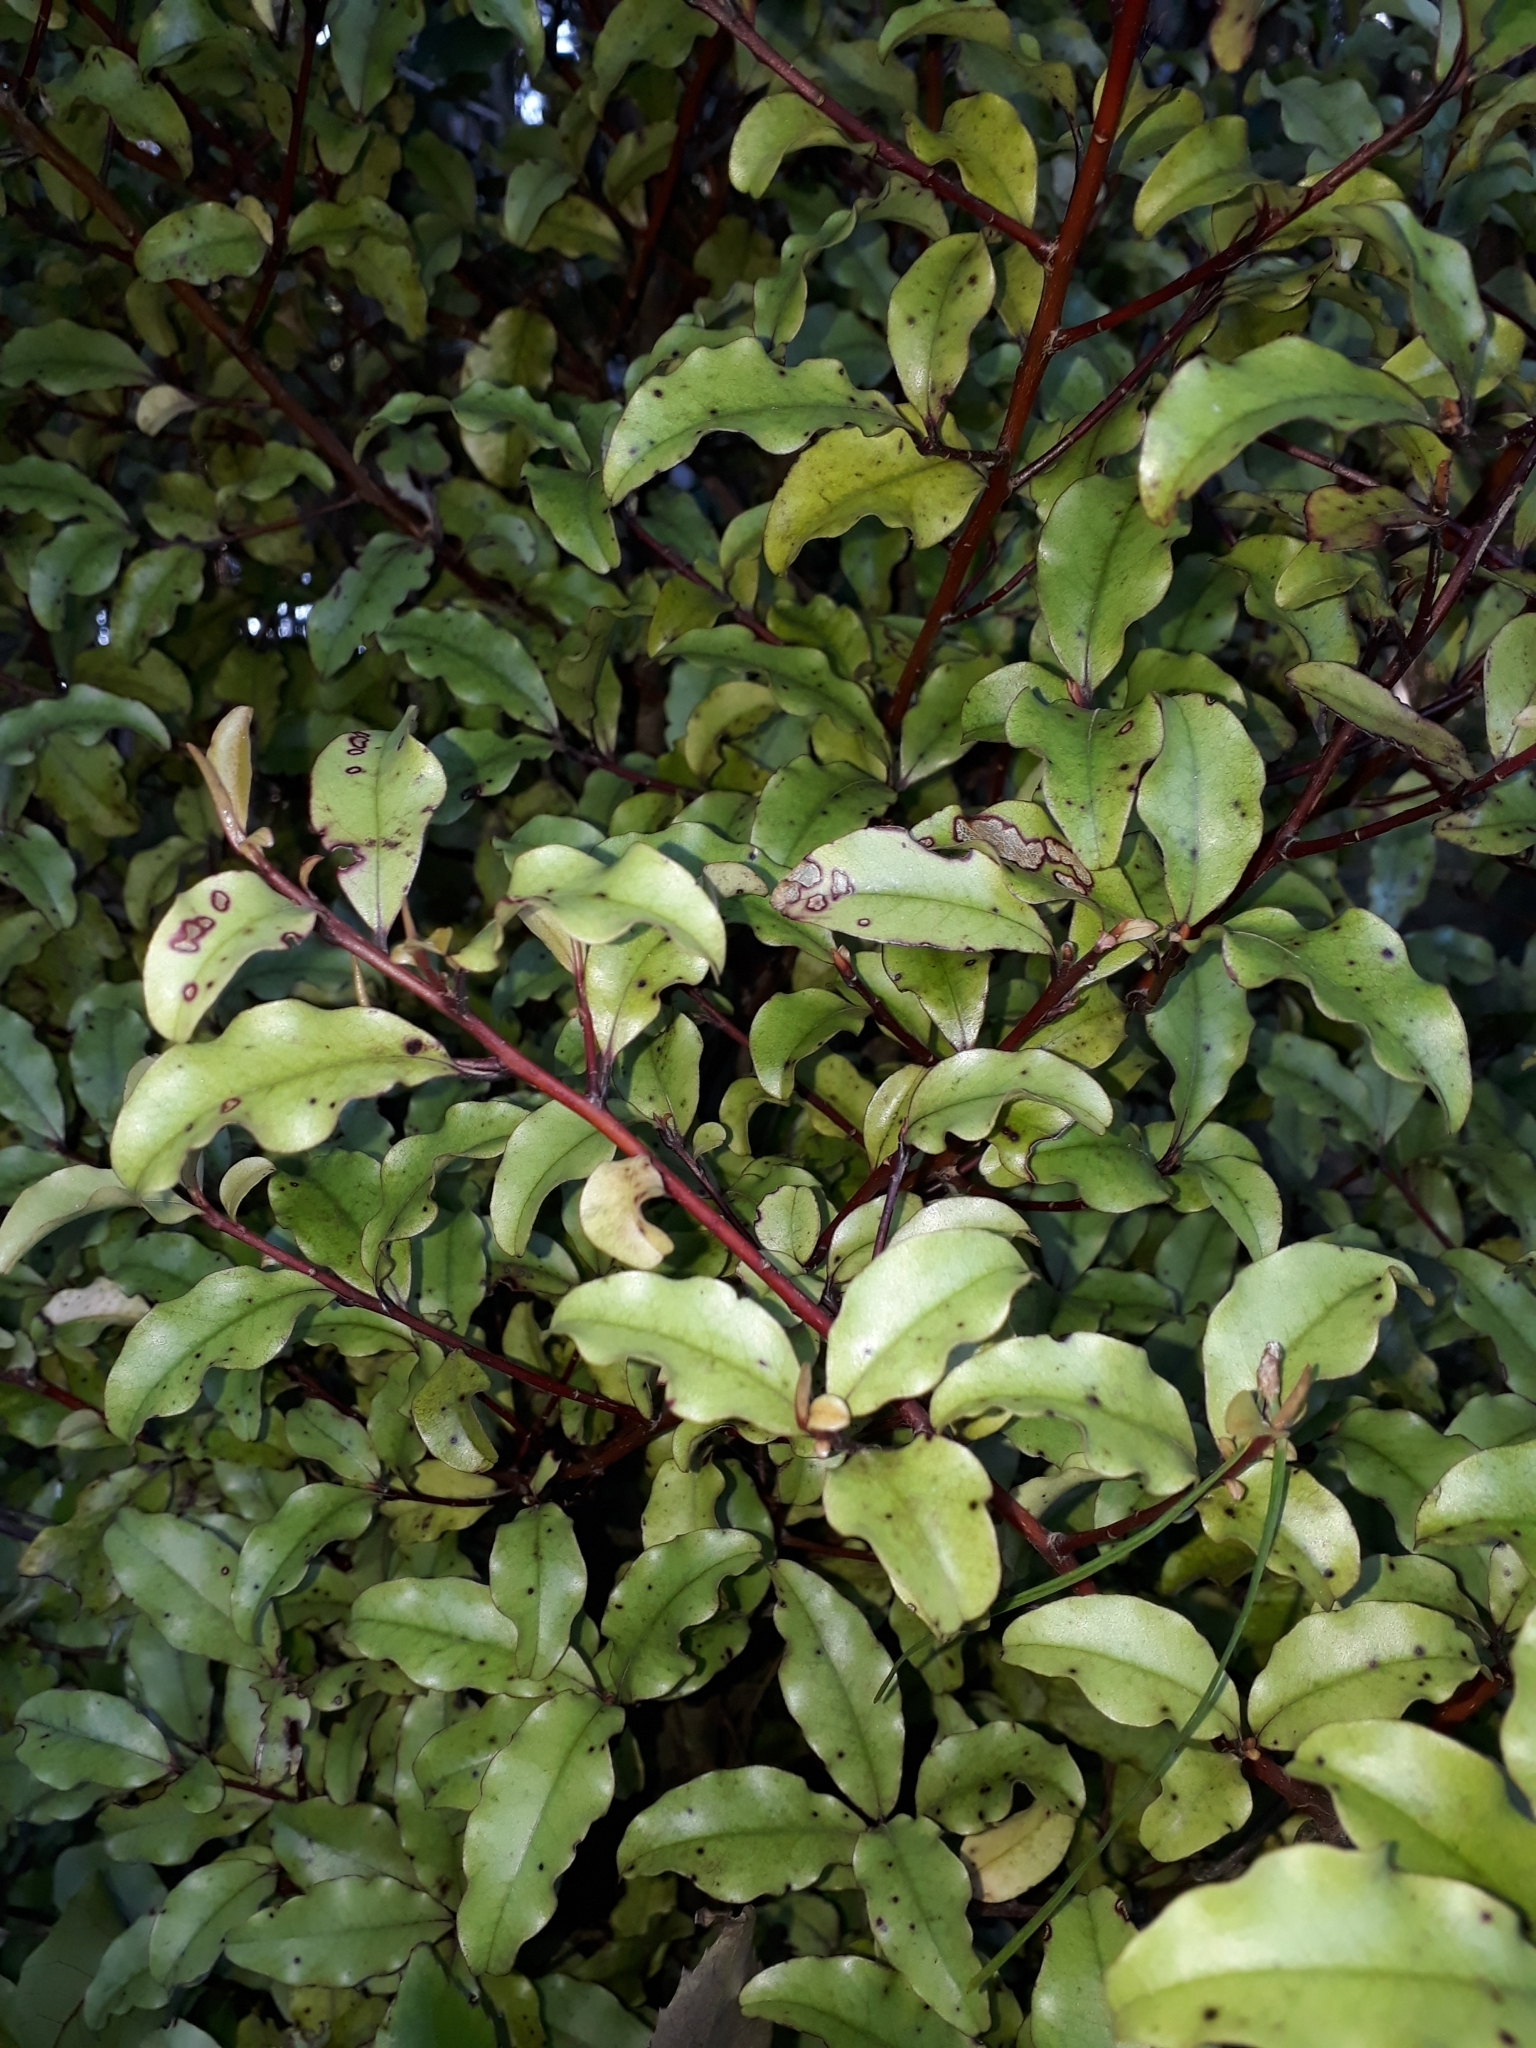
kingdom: Plantae
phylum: Tracheophyta
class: Magnoliopsida
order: Ericales
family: Primulaceae
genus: Myrsine
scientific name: Myrsine australis
